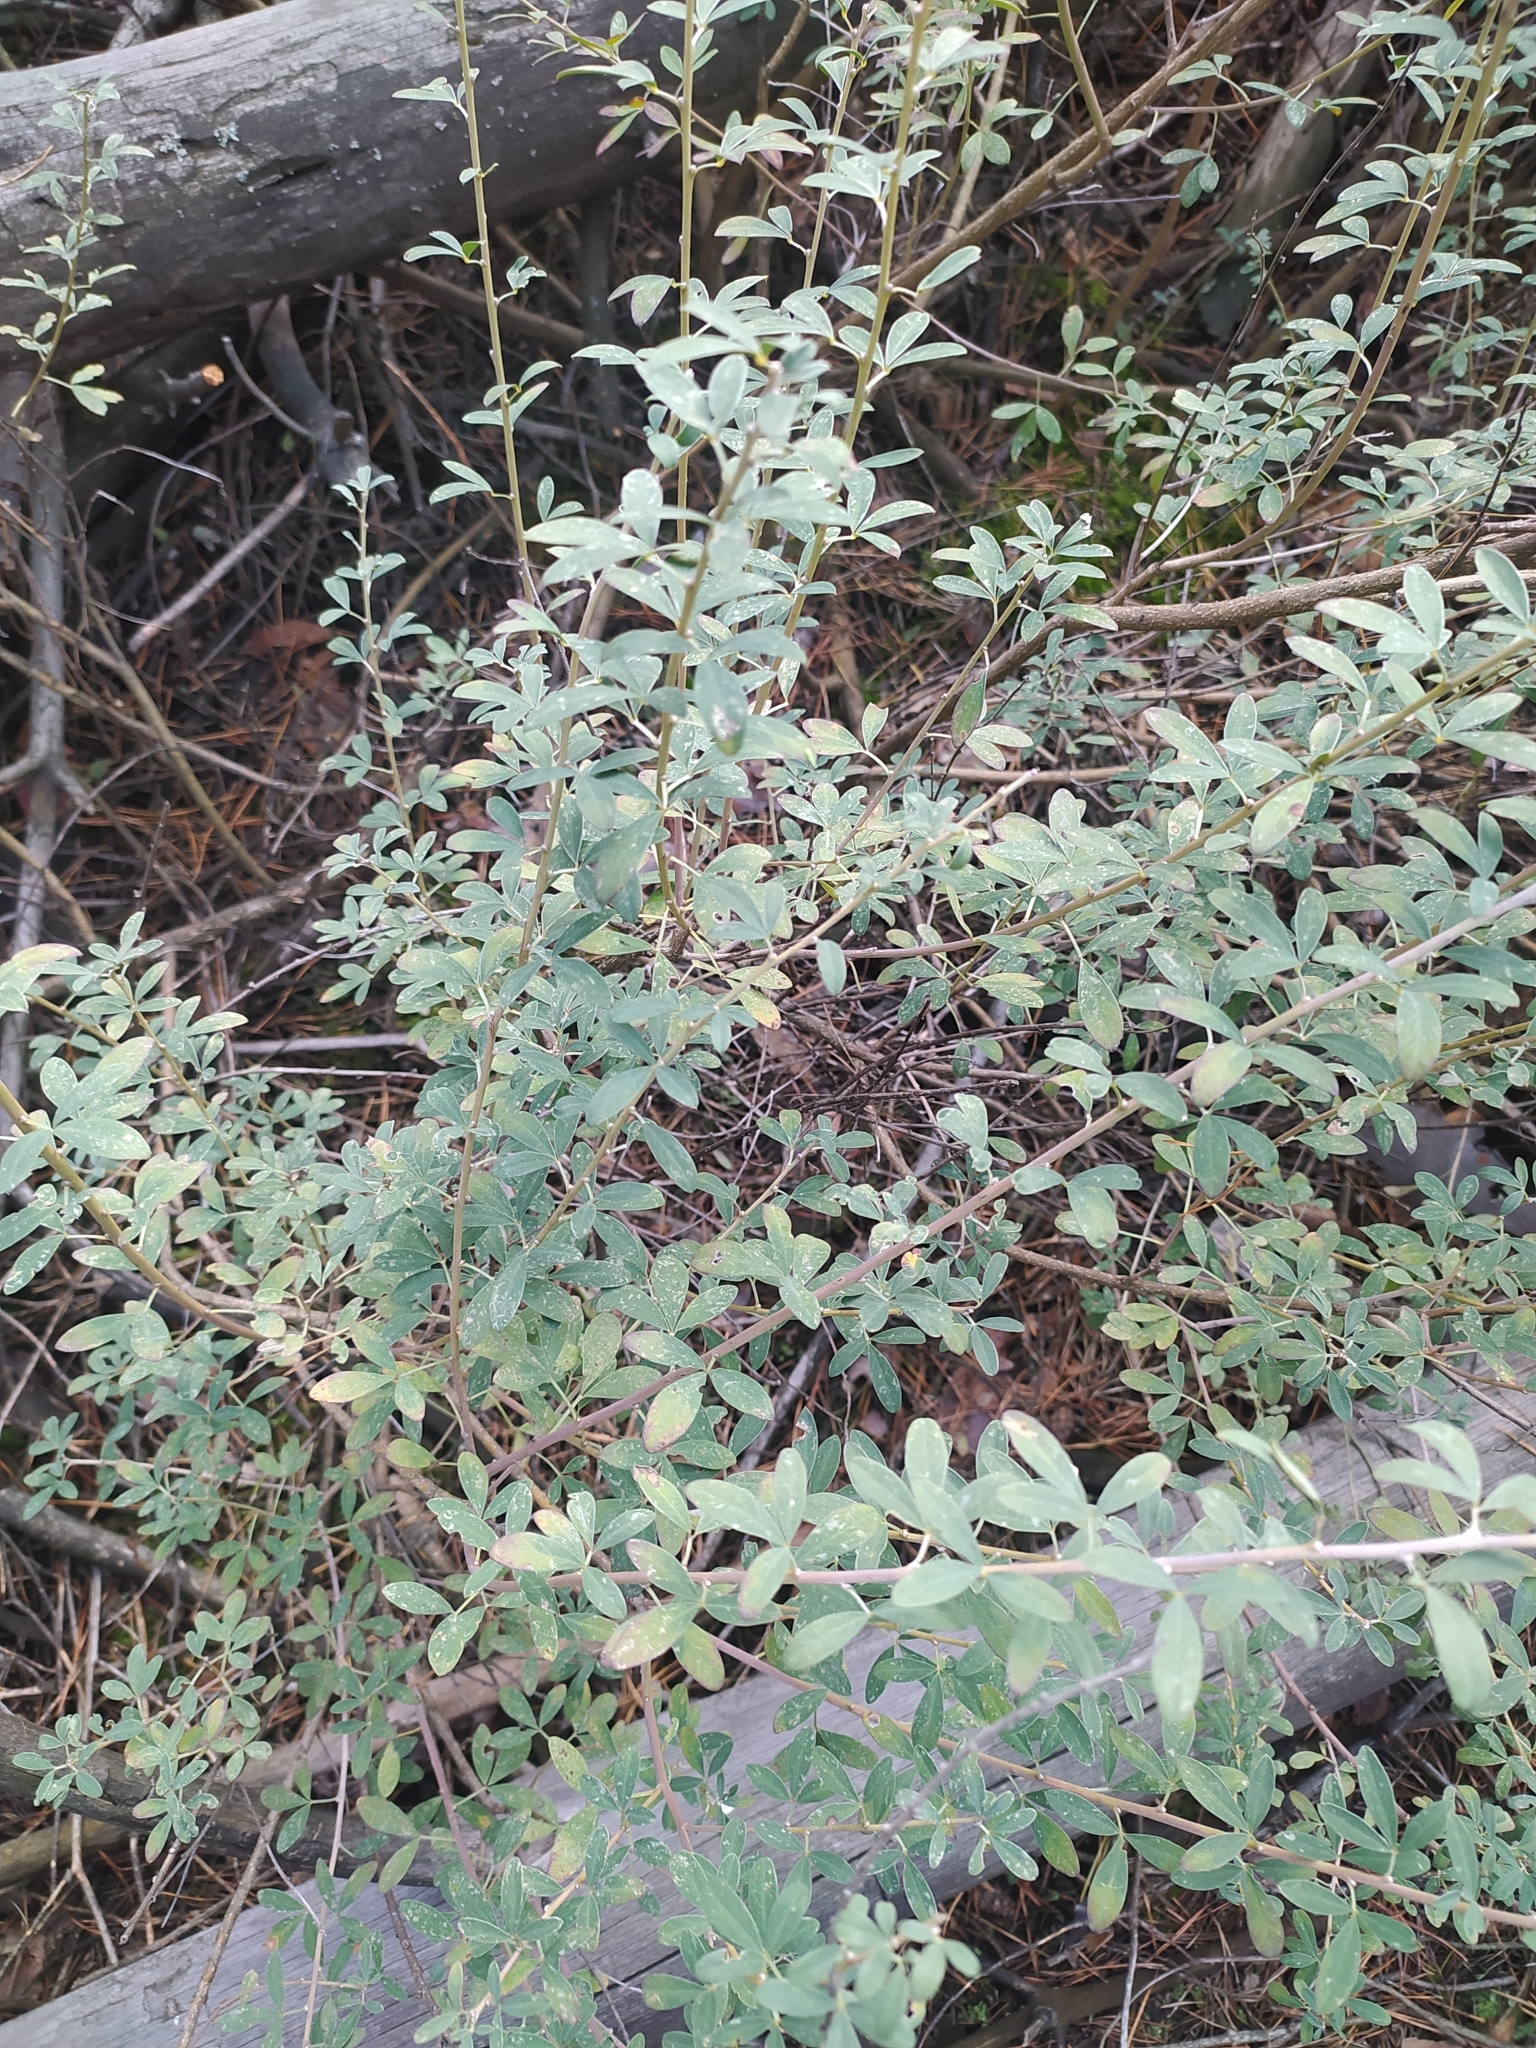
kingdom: Plantae
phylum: Tracheophyta
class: Magnoliopsida
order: Fabales
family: Fabaceae
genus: Chamaecytisus
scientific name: Chamaecytisus ruthenicus
